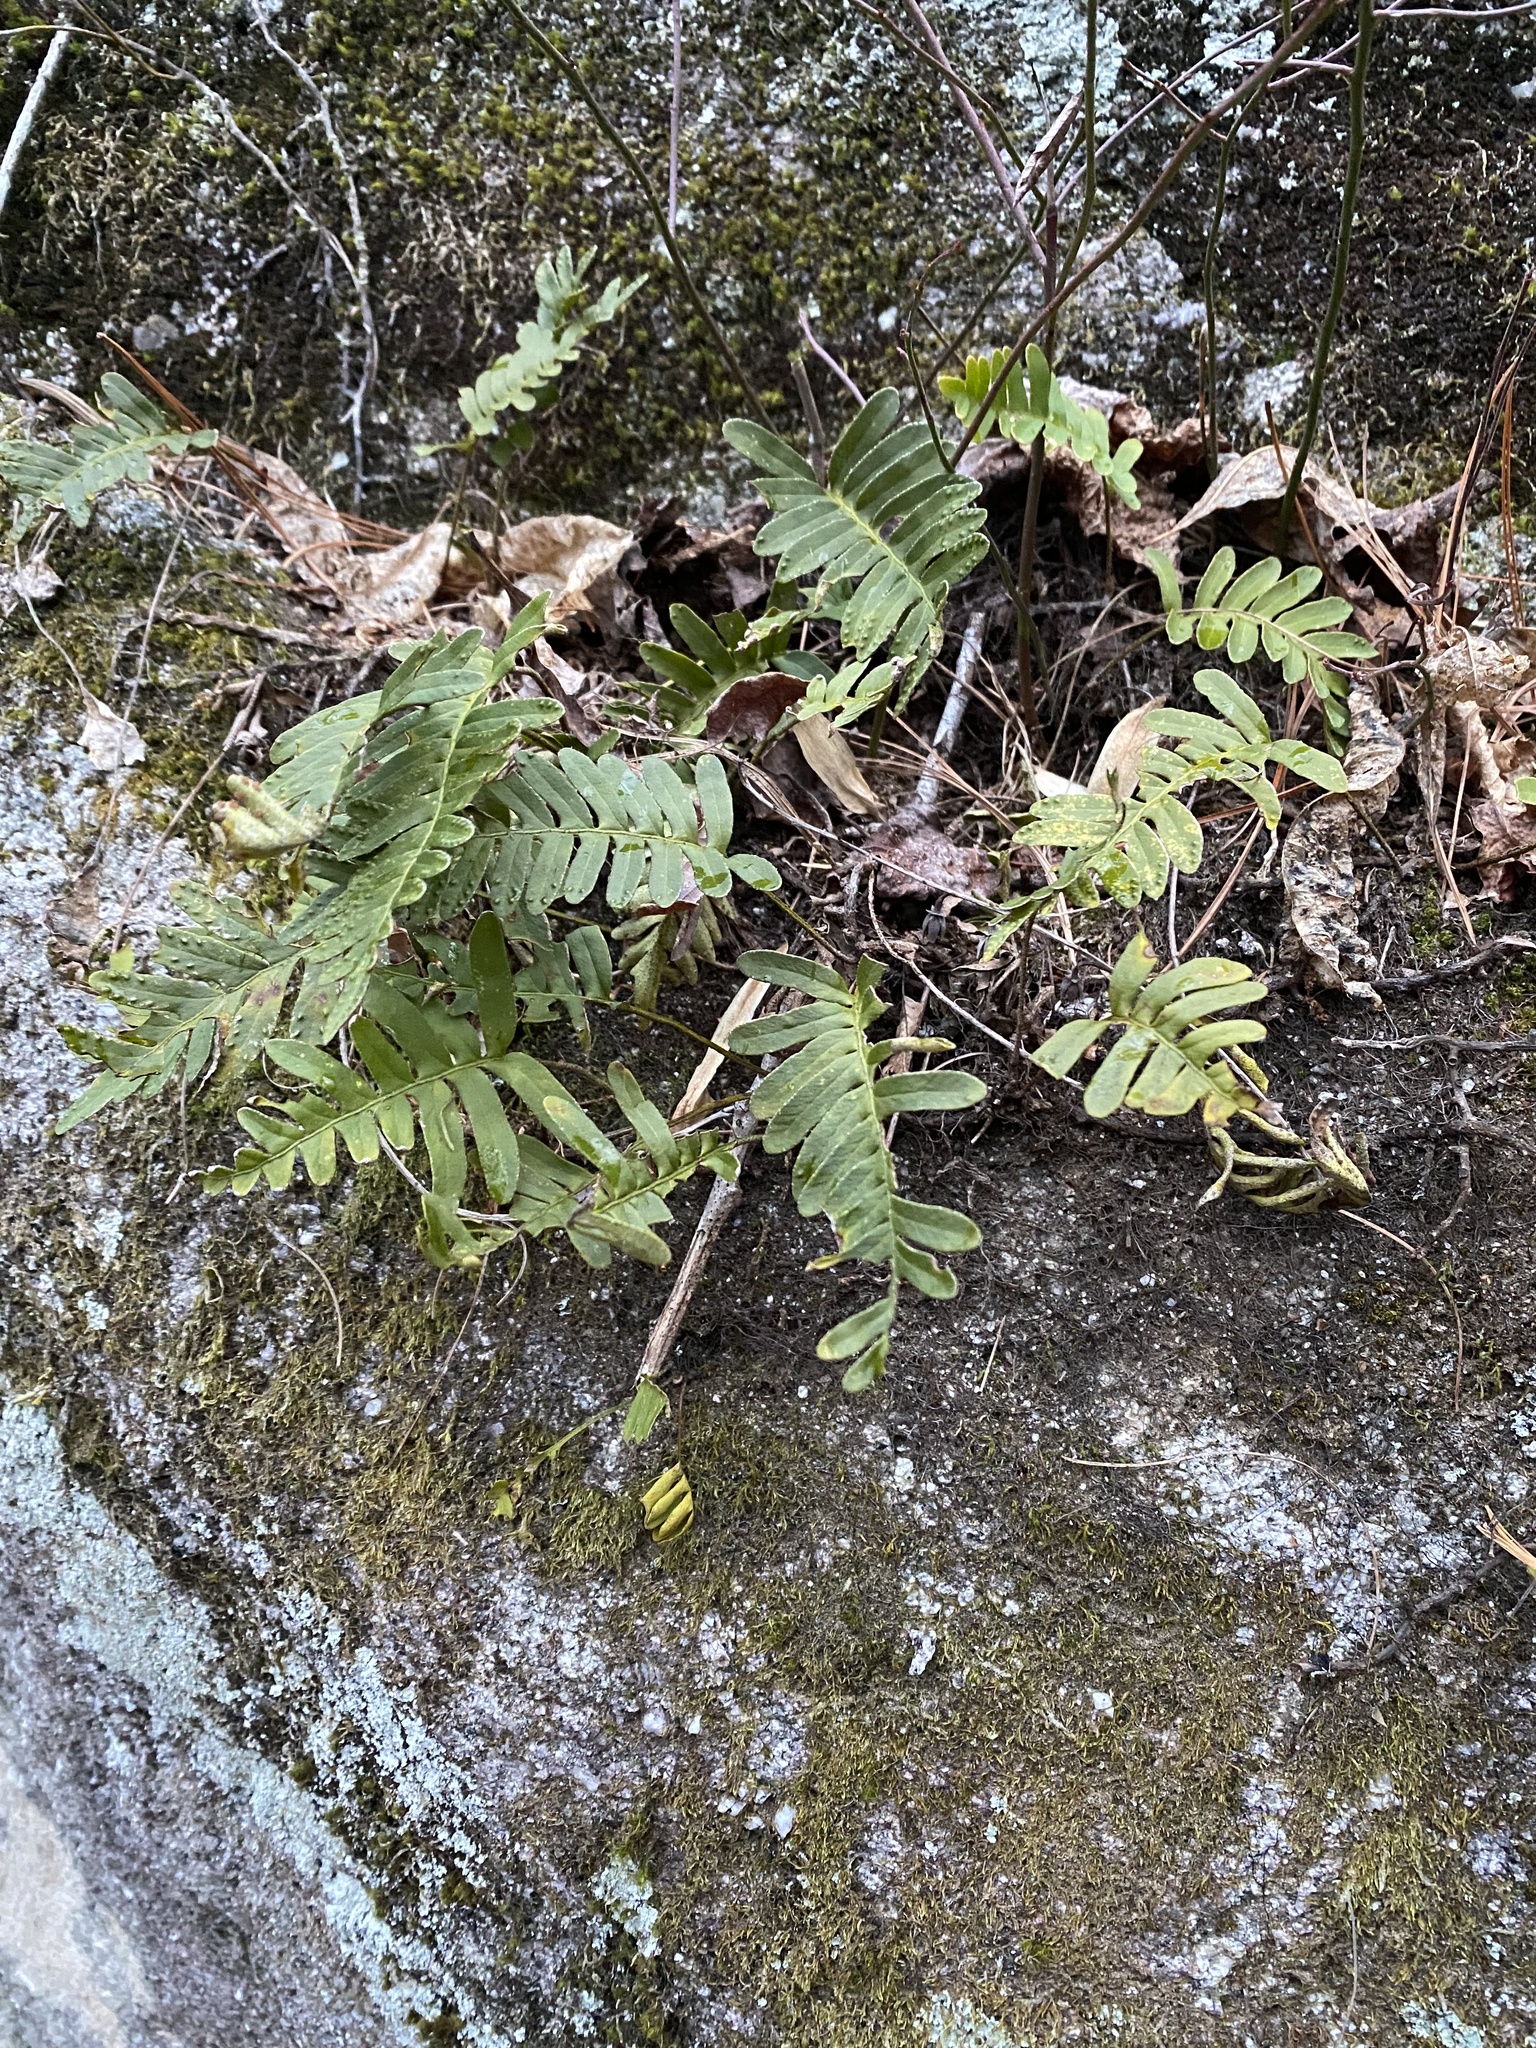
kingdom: Plantae
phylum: Tracheophyta
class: Polypodiopsida
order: Polypodiales
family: Polypodiaceae
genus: Pleopeltis
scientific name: Pleopeltis michauxiana
